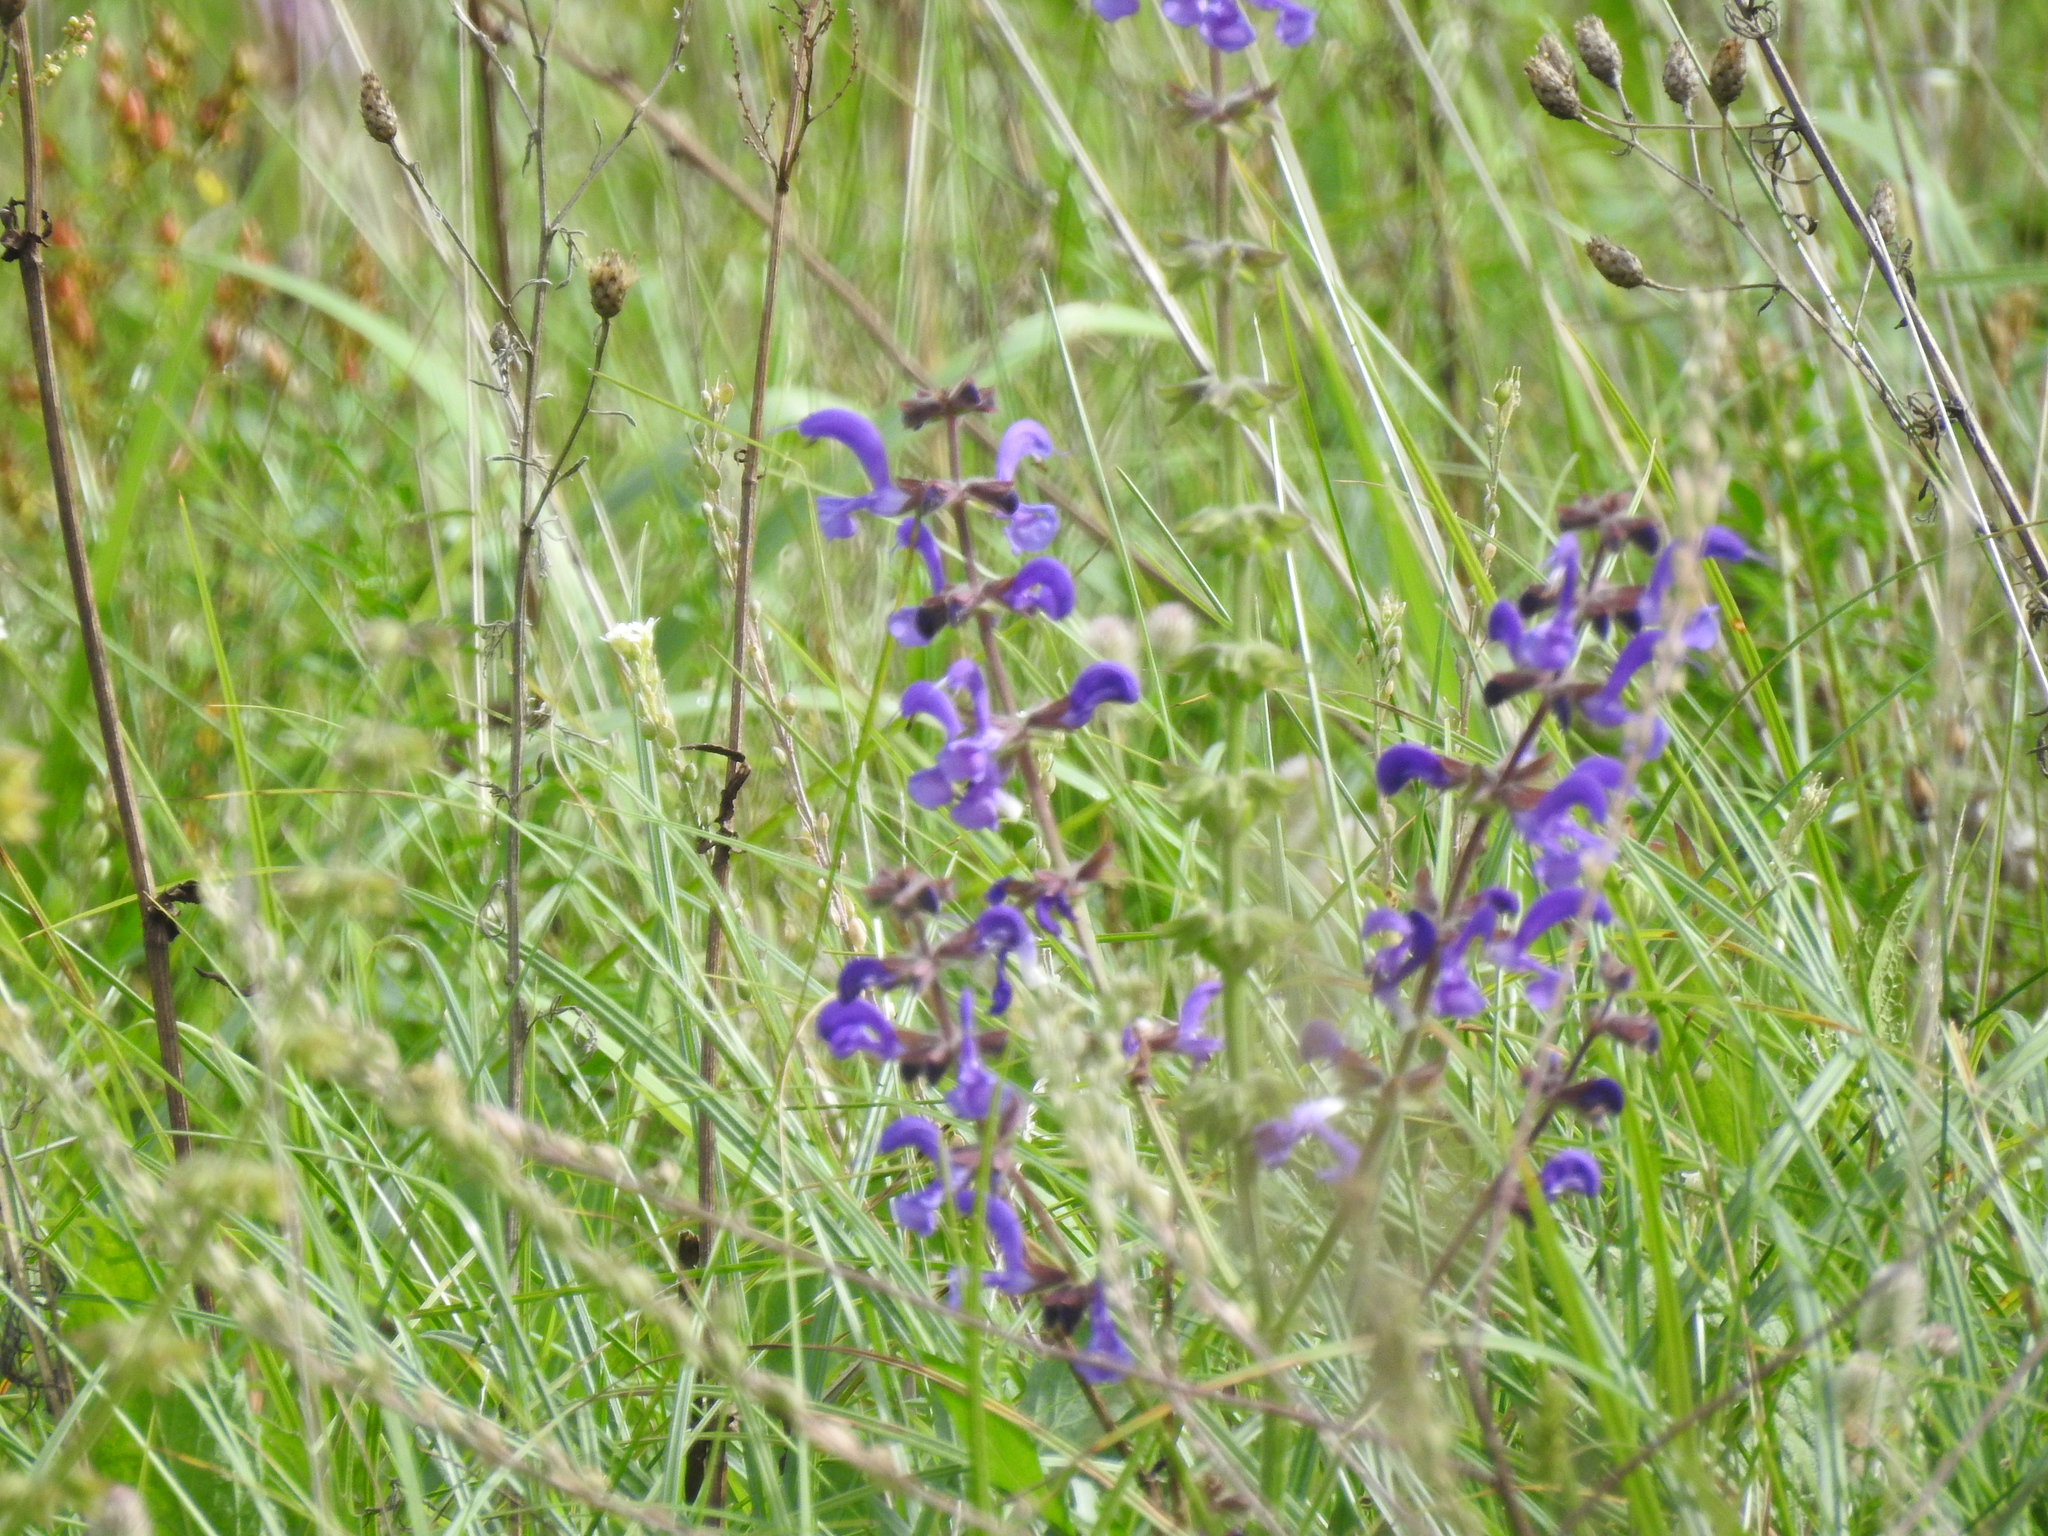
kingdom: Plantae
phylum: Tracheophyta
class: Magnoliopsida
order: Lamiales
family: Lamiaceae
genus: Salvia
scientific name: Salvia pratensis
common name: Meadow sage
